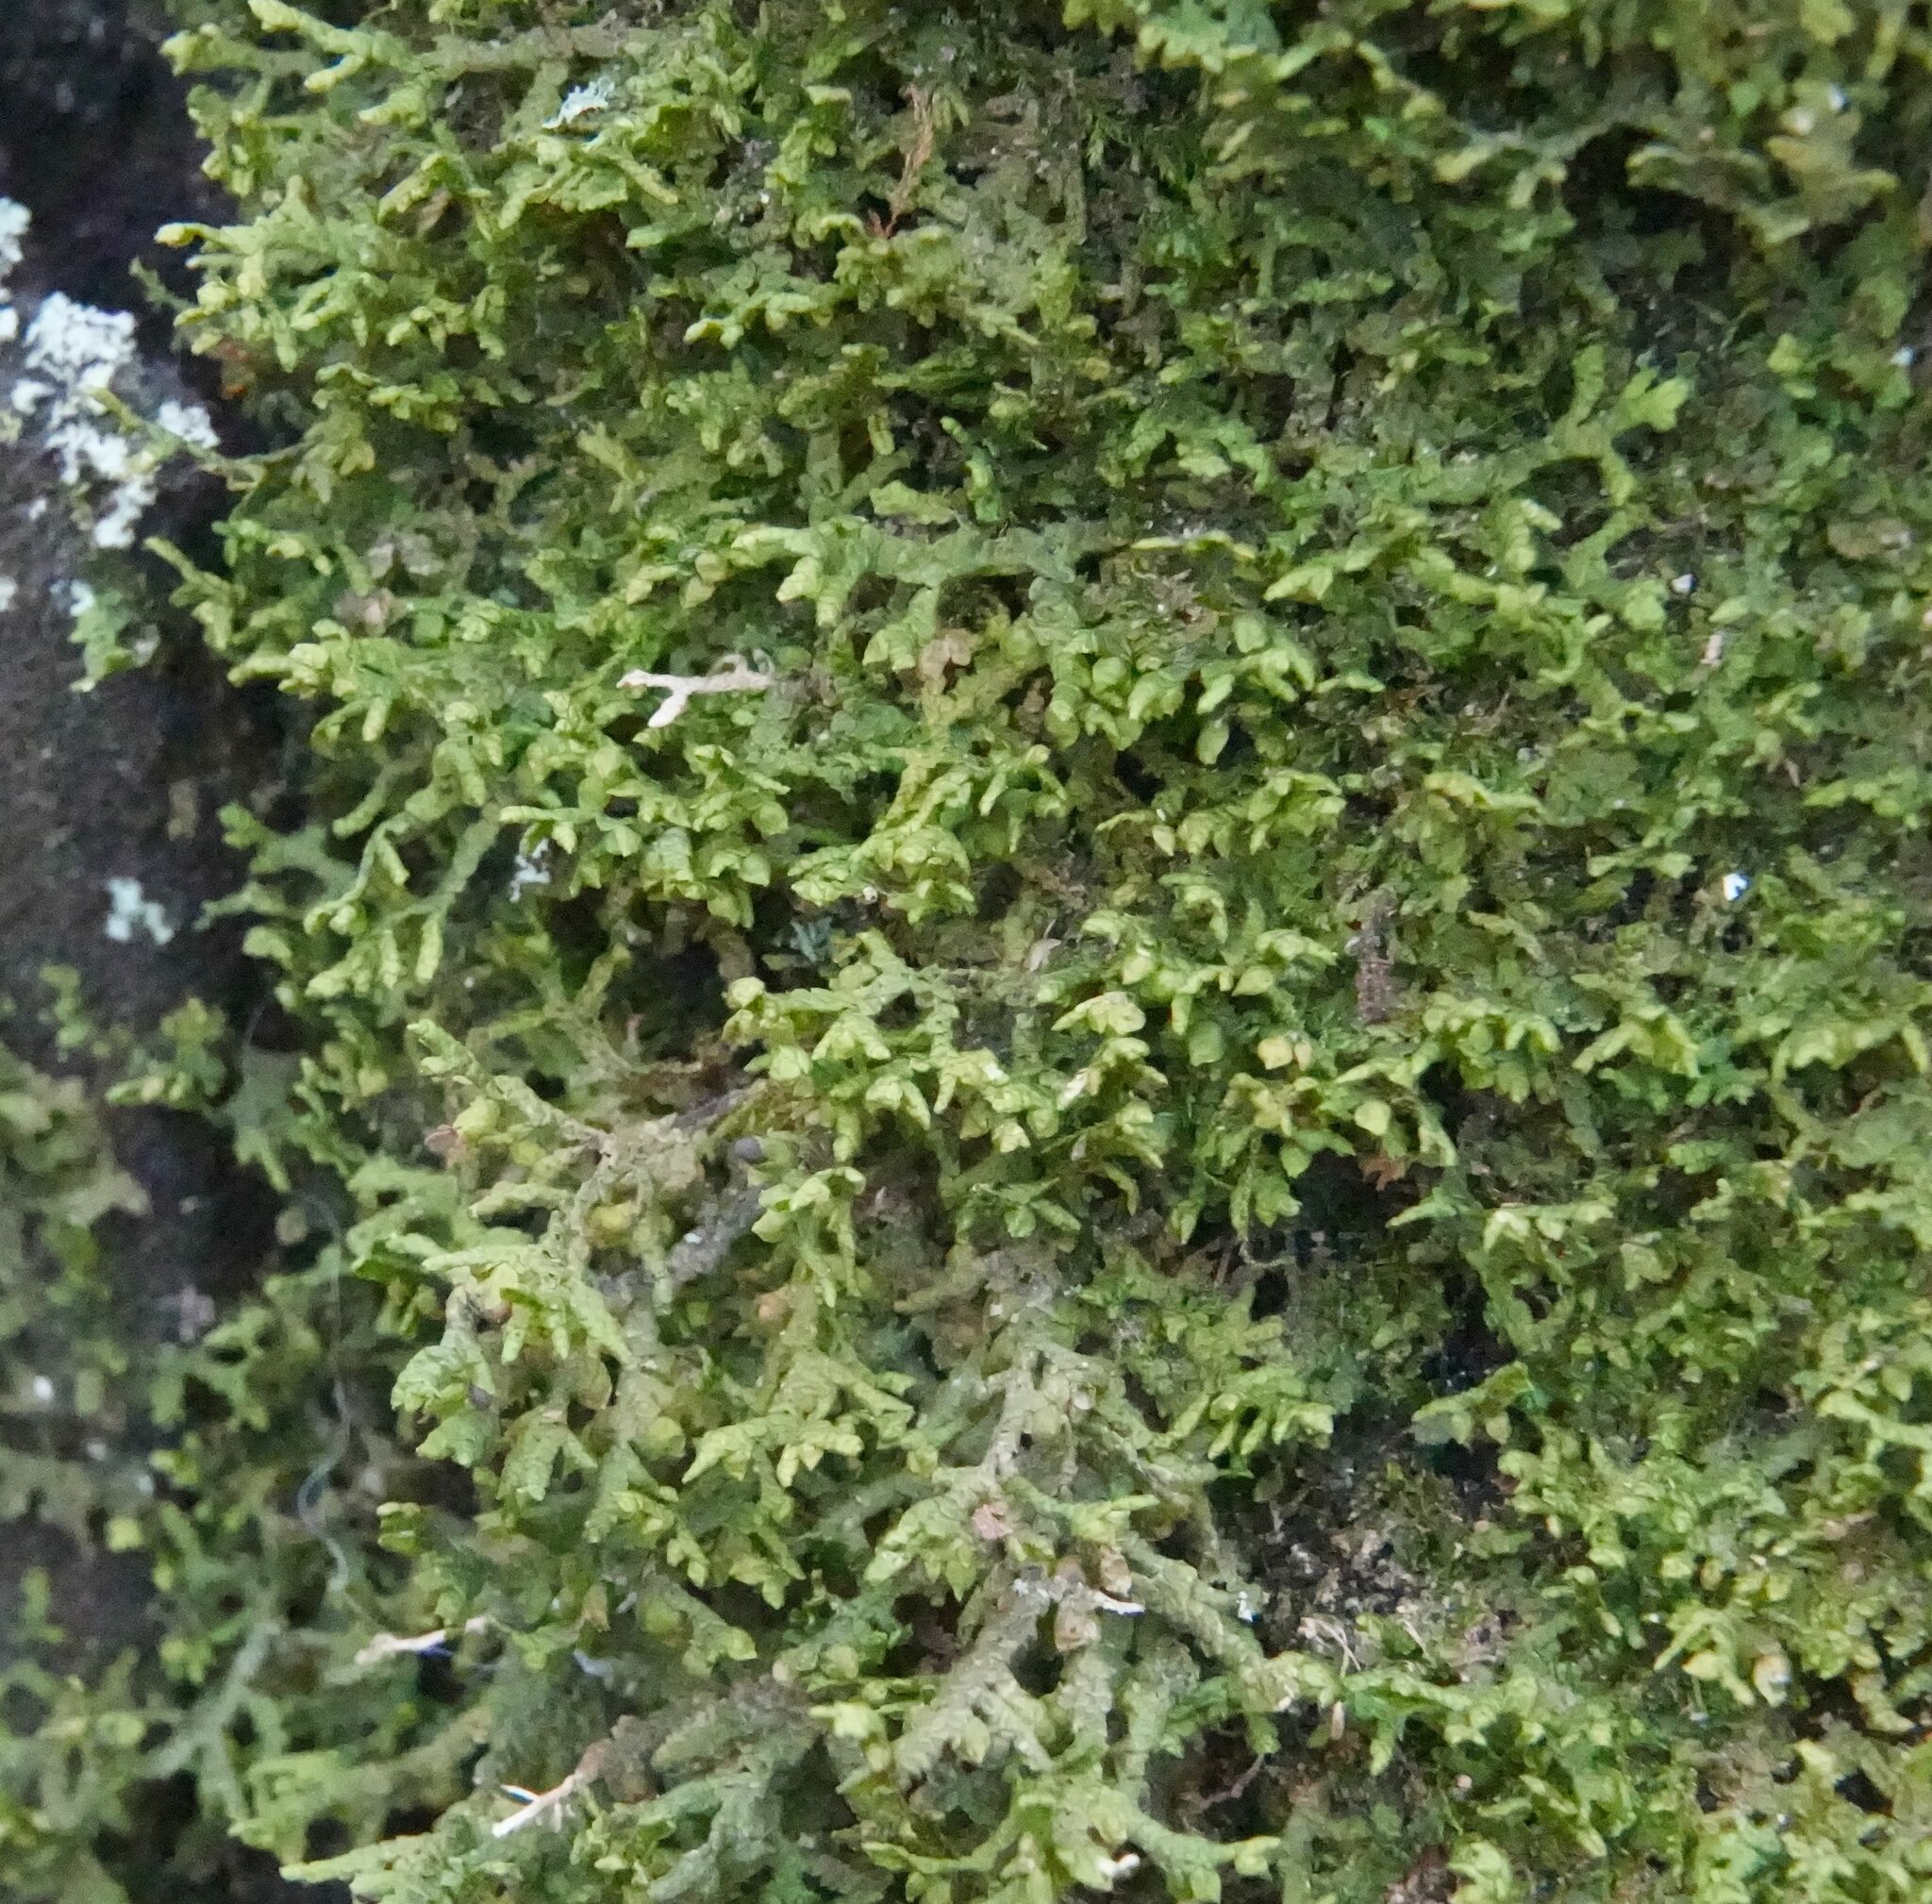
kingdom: Plantae
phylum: Marchantiophyta
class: Jungermanniopsida
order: Porellales
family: Porellaceae
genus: Porella
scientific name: Porella platyphylla
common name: Wall scalewort
